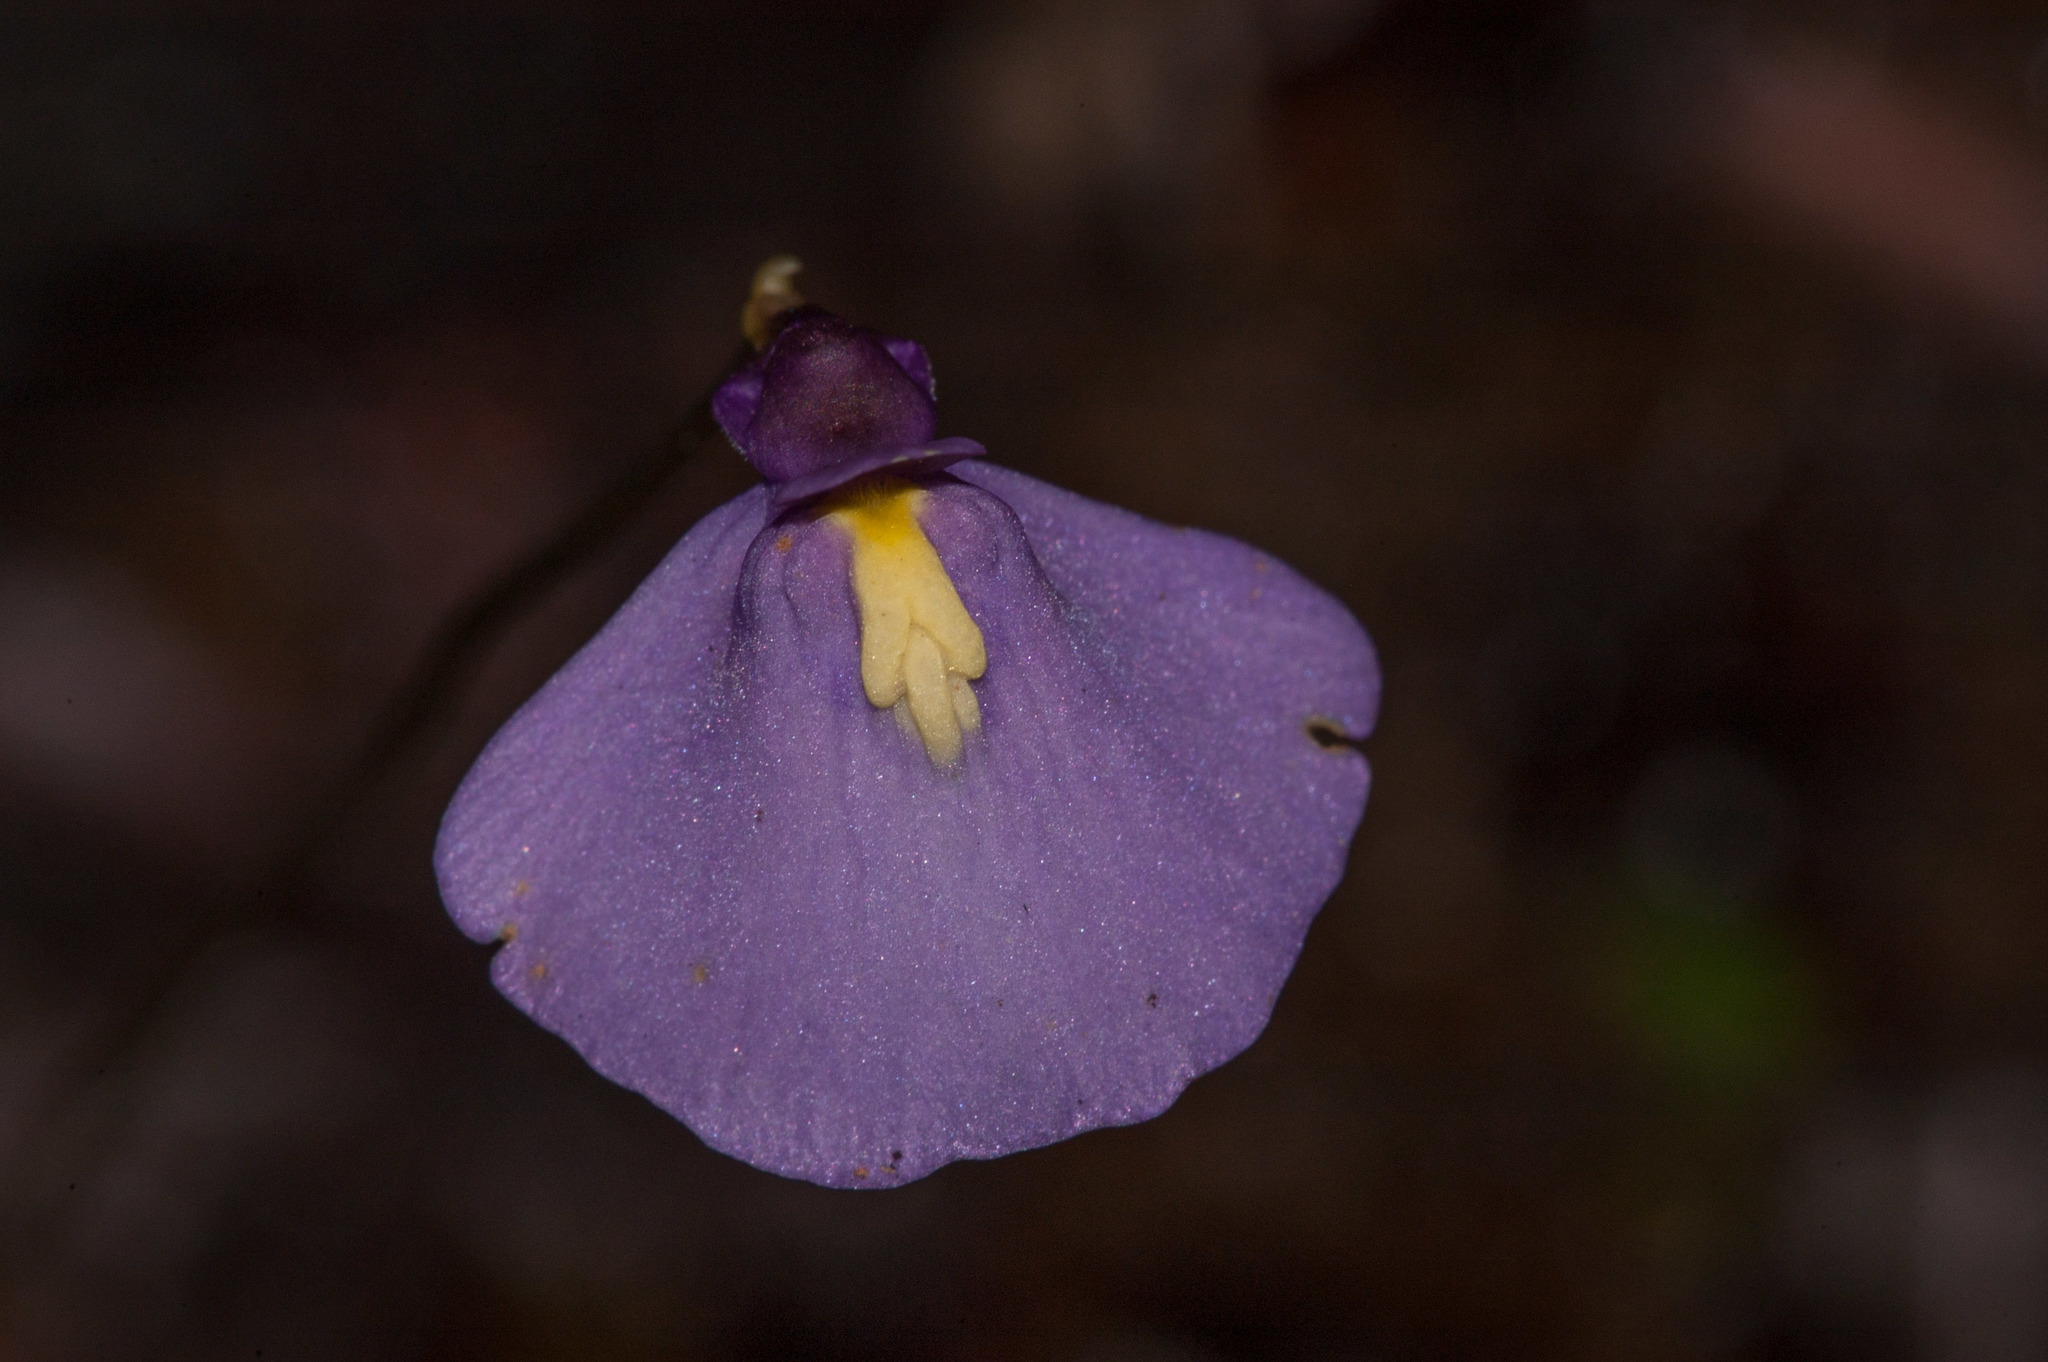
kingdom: Plantae
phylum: Tracheophyta
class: Magnoliopsida
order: Lamiales
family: Lentibulariaceae
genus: Utricularia
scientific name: Utricularia dichotoma
